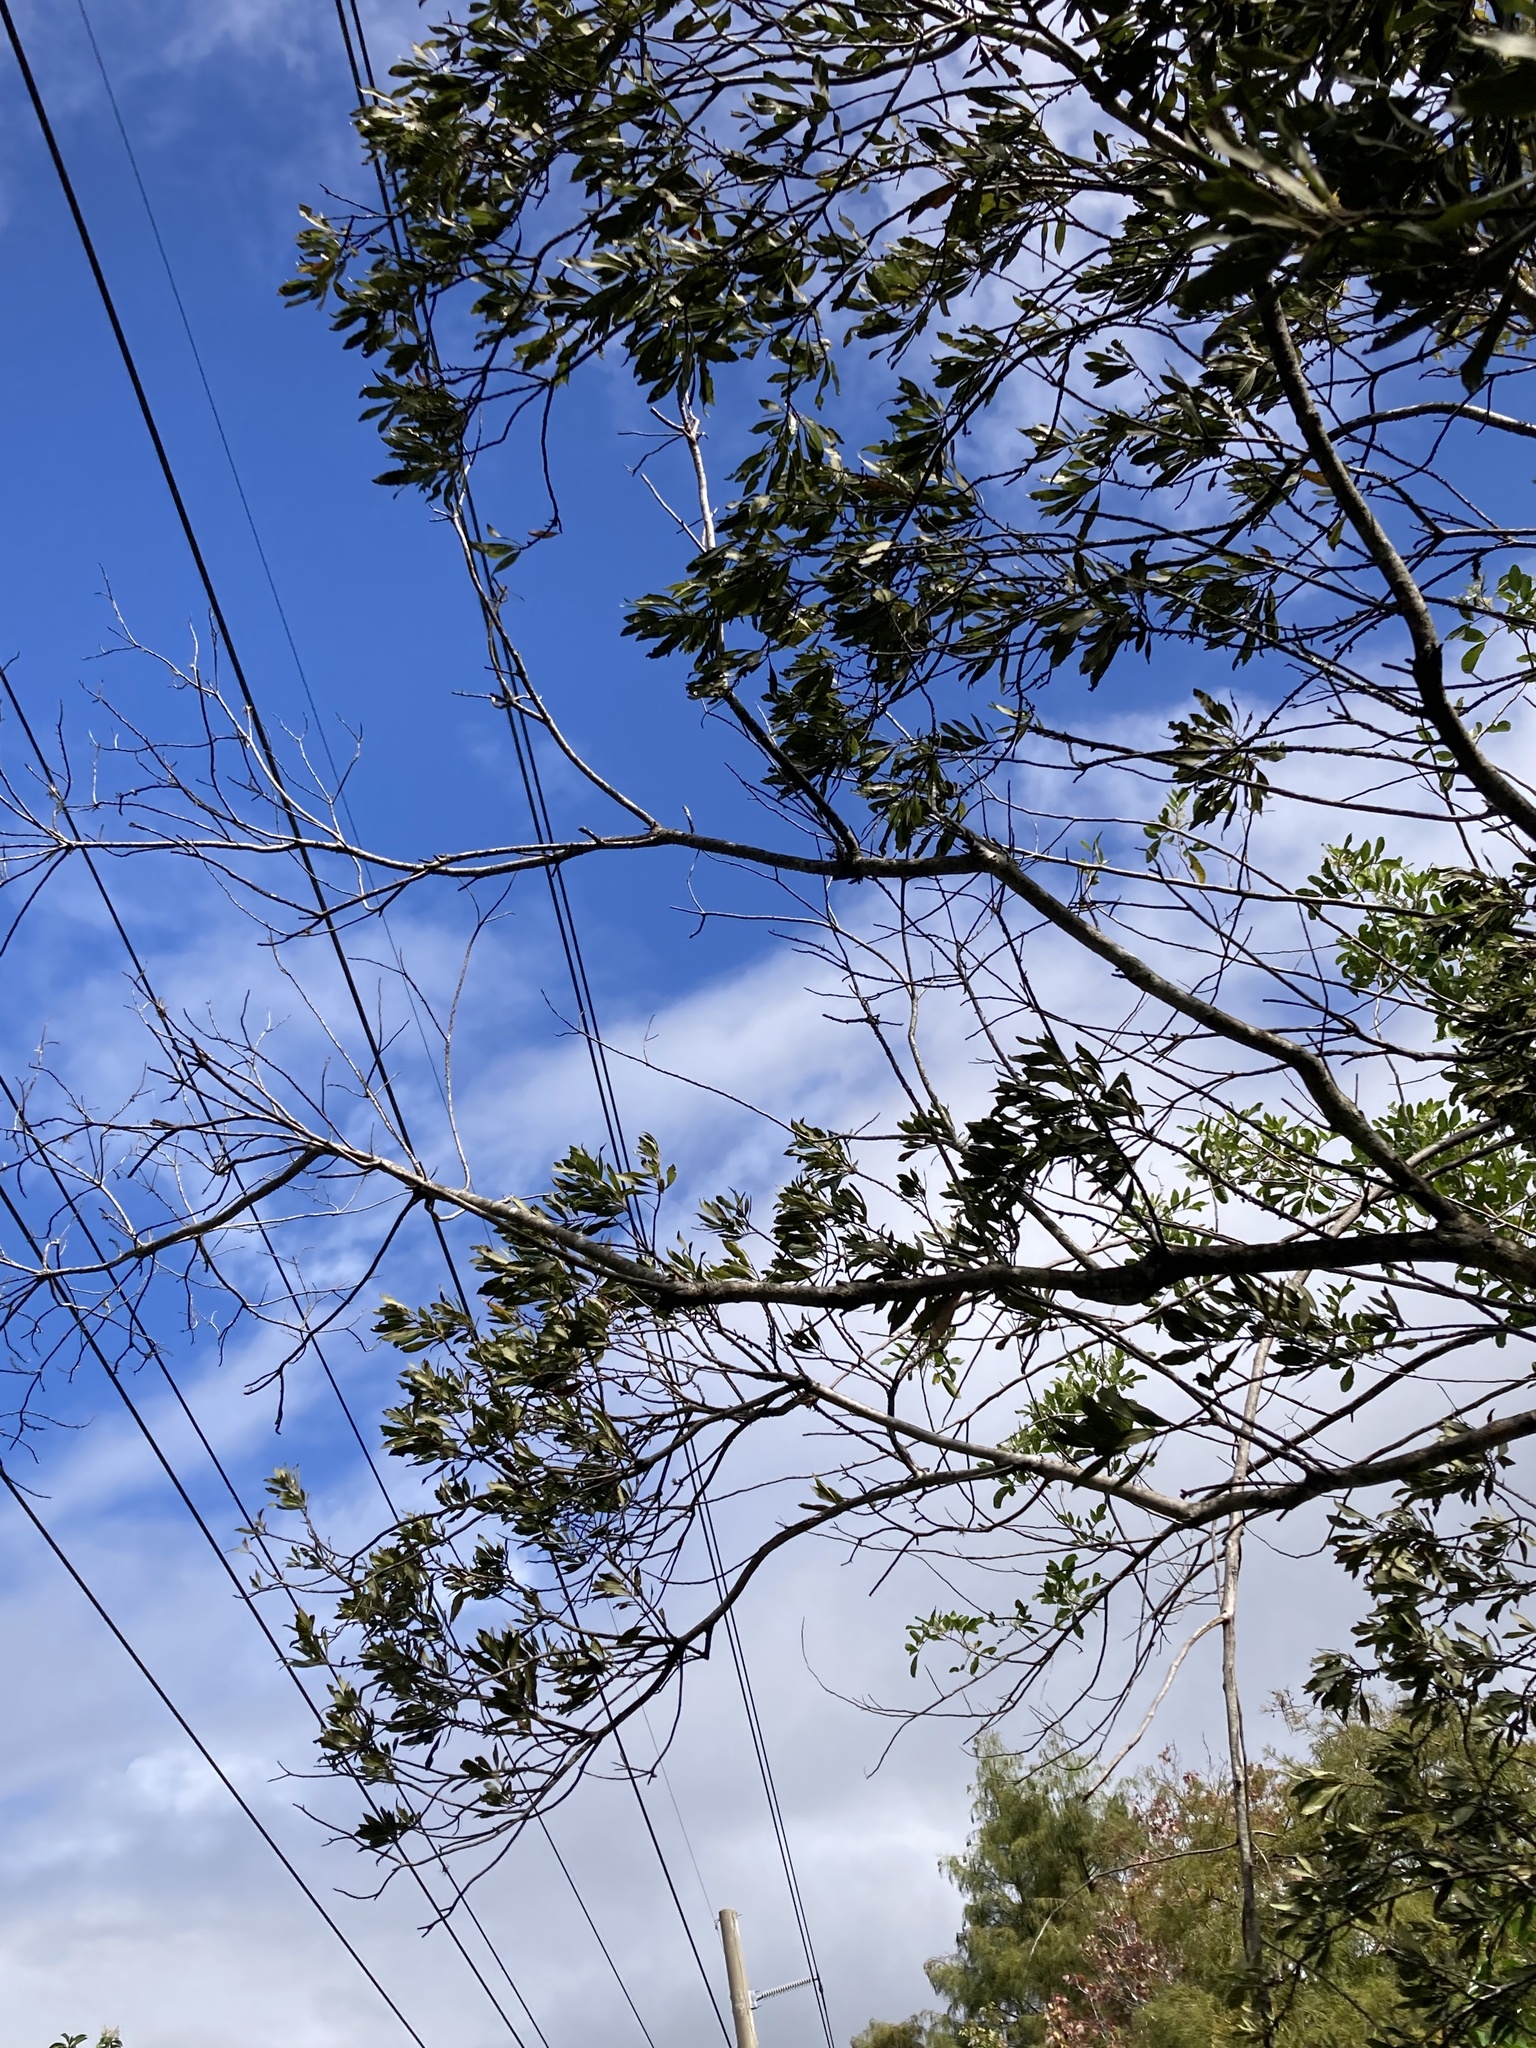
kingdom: Plantae
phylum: Tracheophyta
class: Magnoliopsida
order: Fagales
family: Myricaceae
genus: Morella
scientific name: Morella cerifera
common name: Wax myrtle
